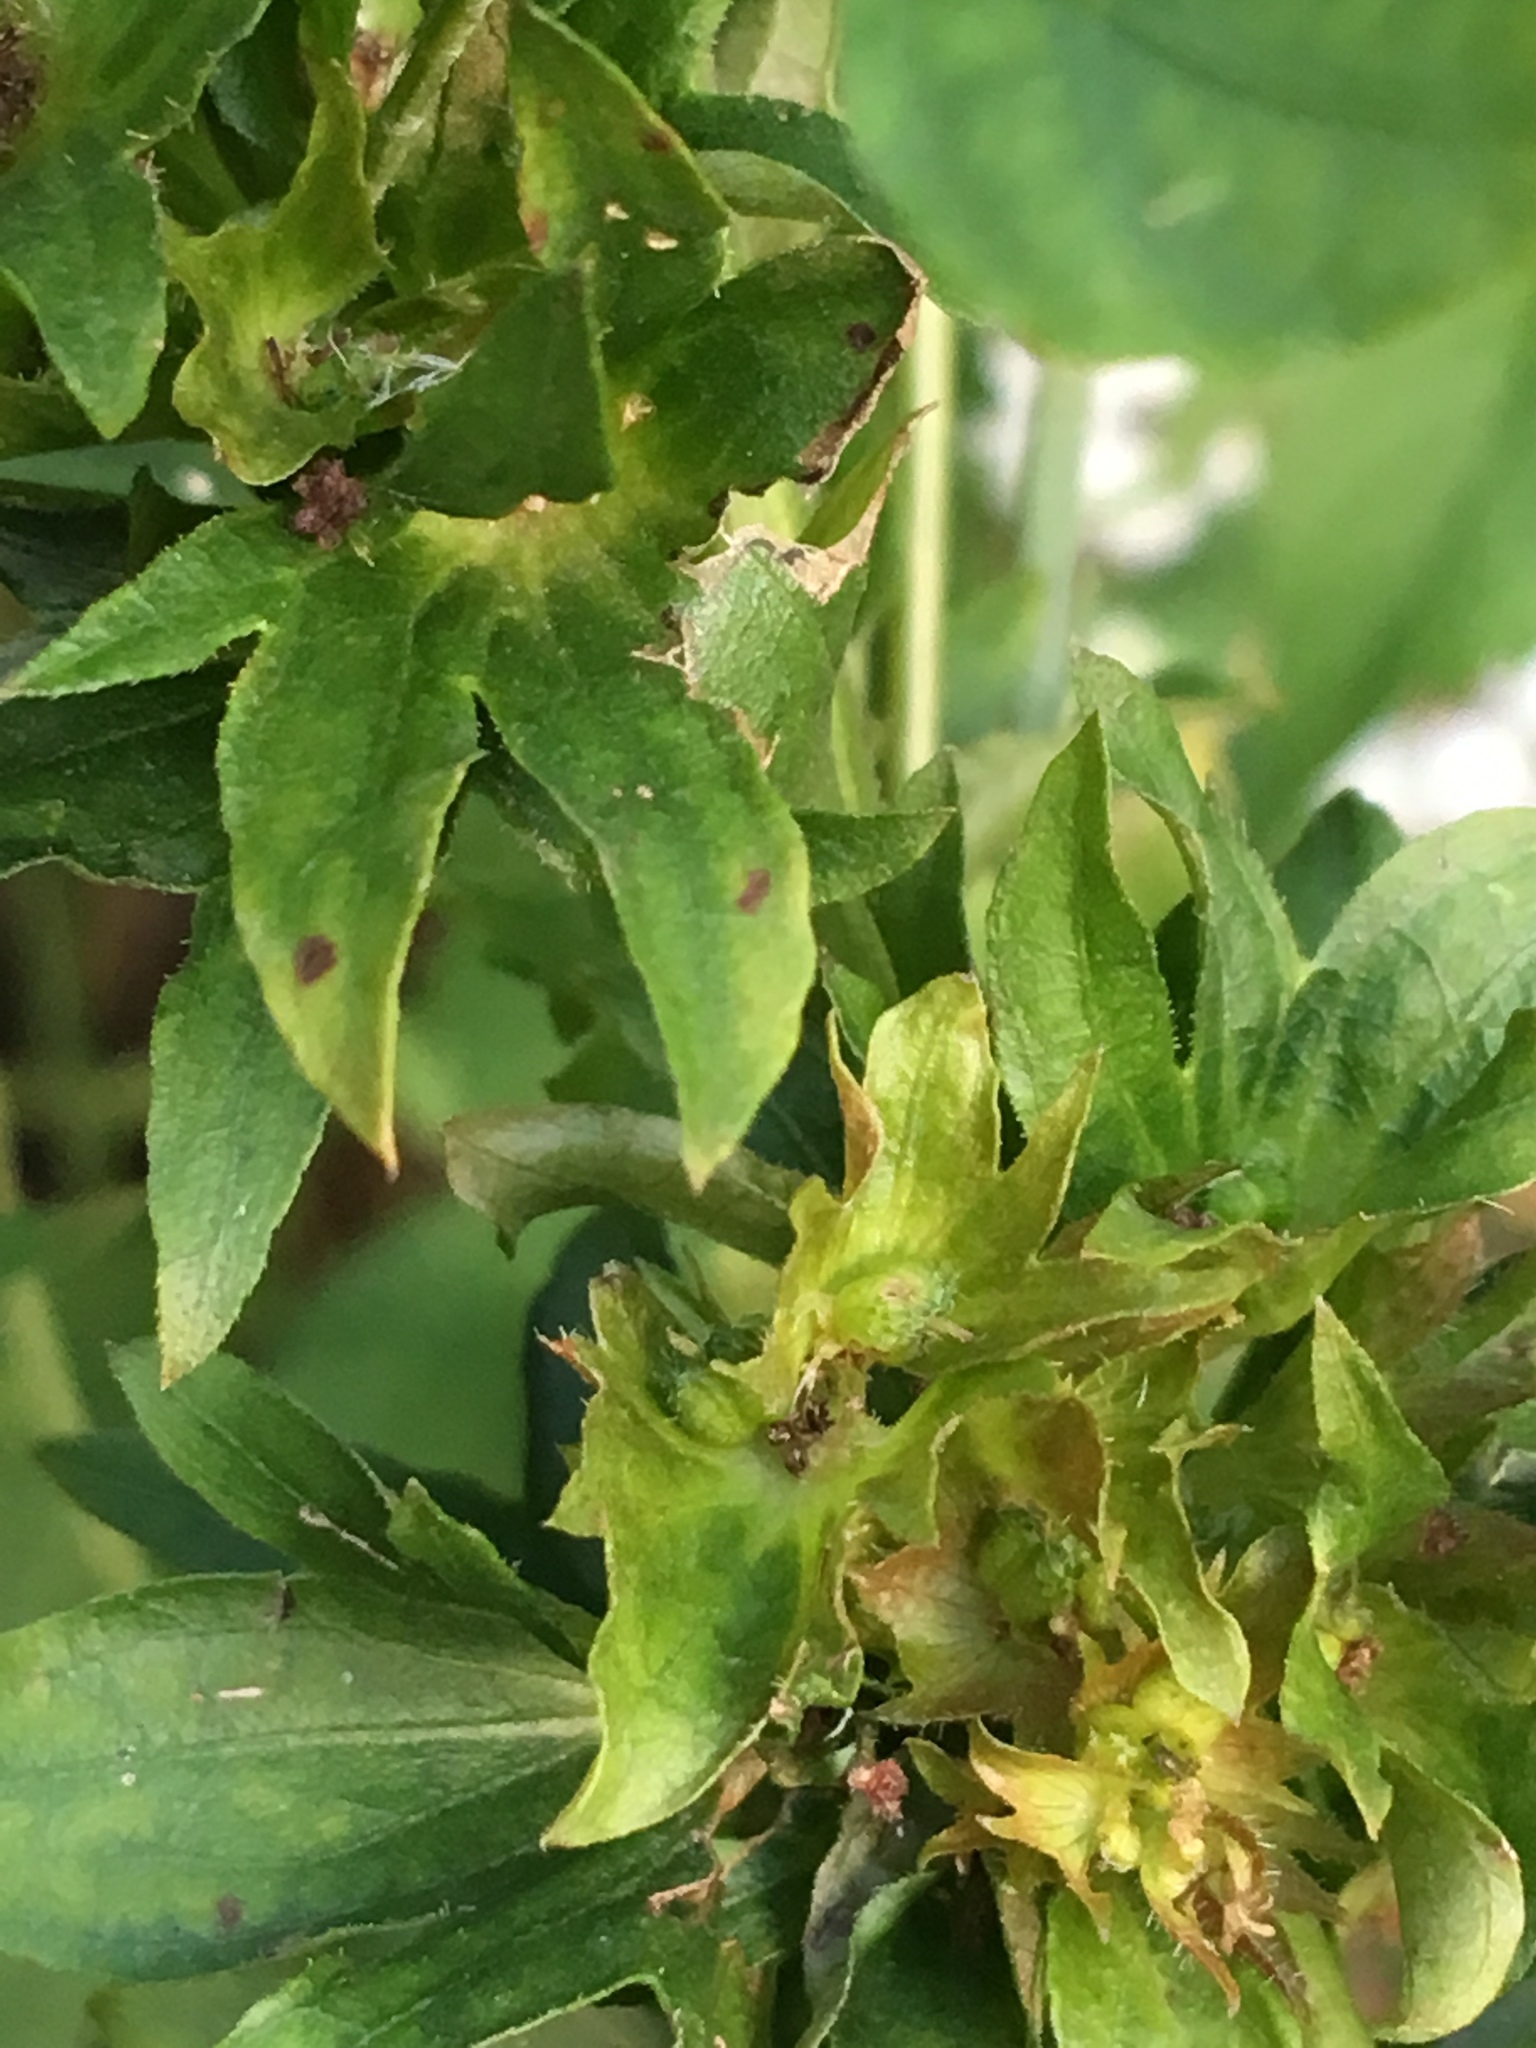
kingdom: Plantae
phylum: Tracheophyta
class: Magnoliopsida
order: Malpighiales
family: Euphorbiaceae
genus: Acalypha
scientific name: Acalypha rhomboidea
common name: Rhombic copperleaf
